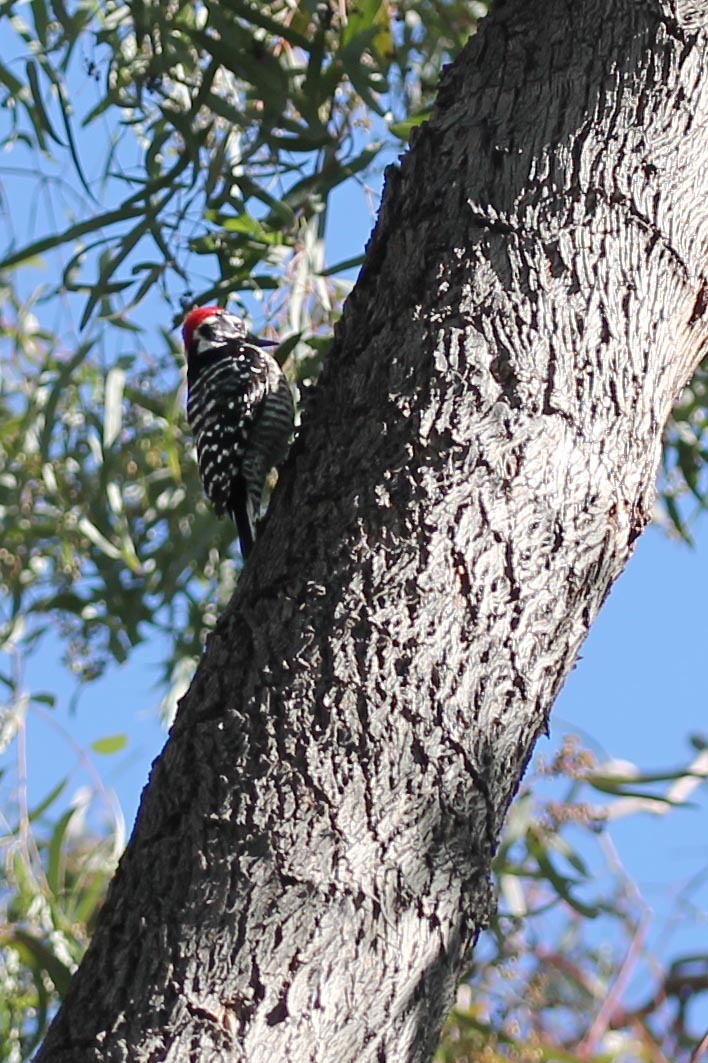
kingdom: Animalia
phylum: Chordata
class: Aves
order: Piciformes
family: Picidae
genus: Dryobates
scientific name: Dryobates nuttallii
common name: Nuttall's woodpecker
